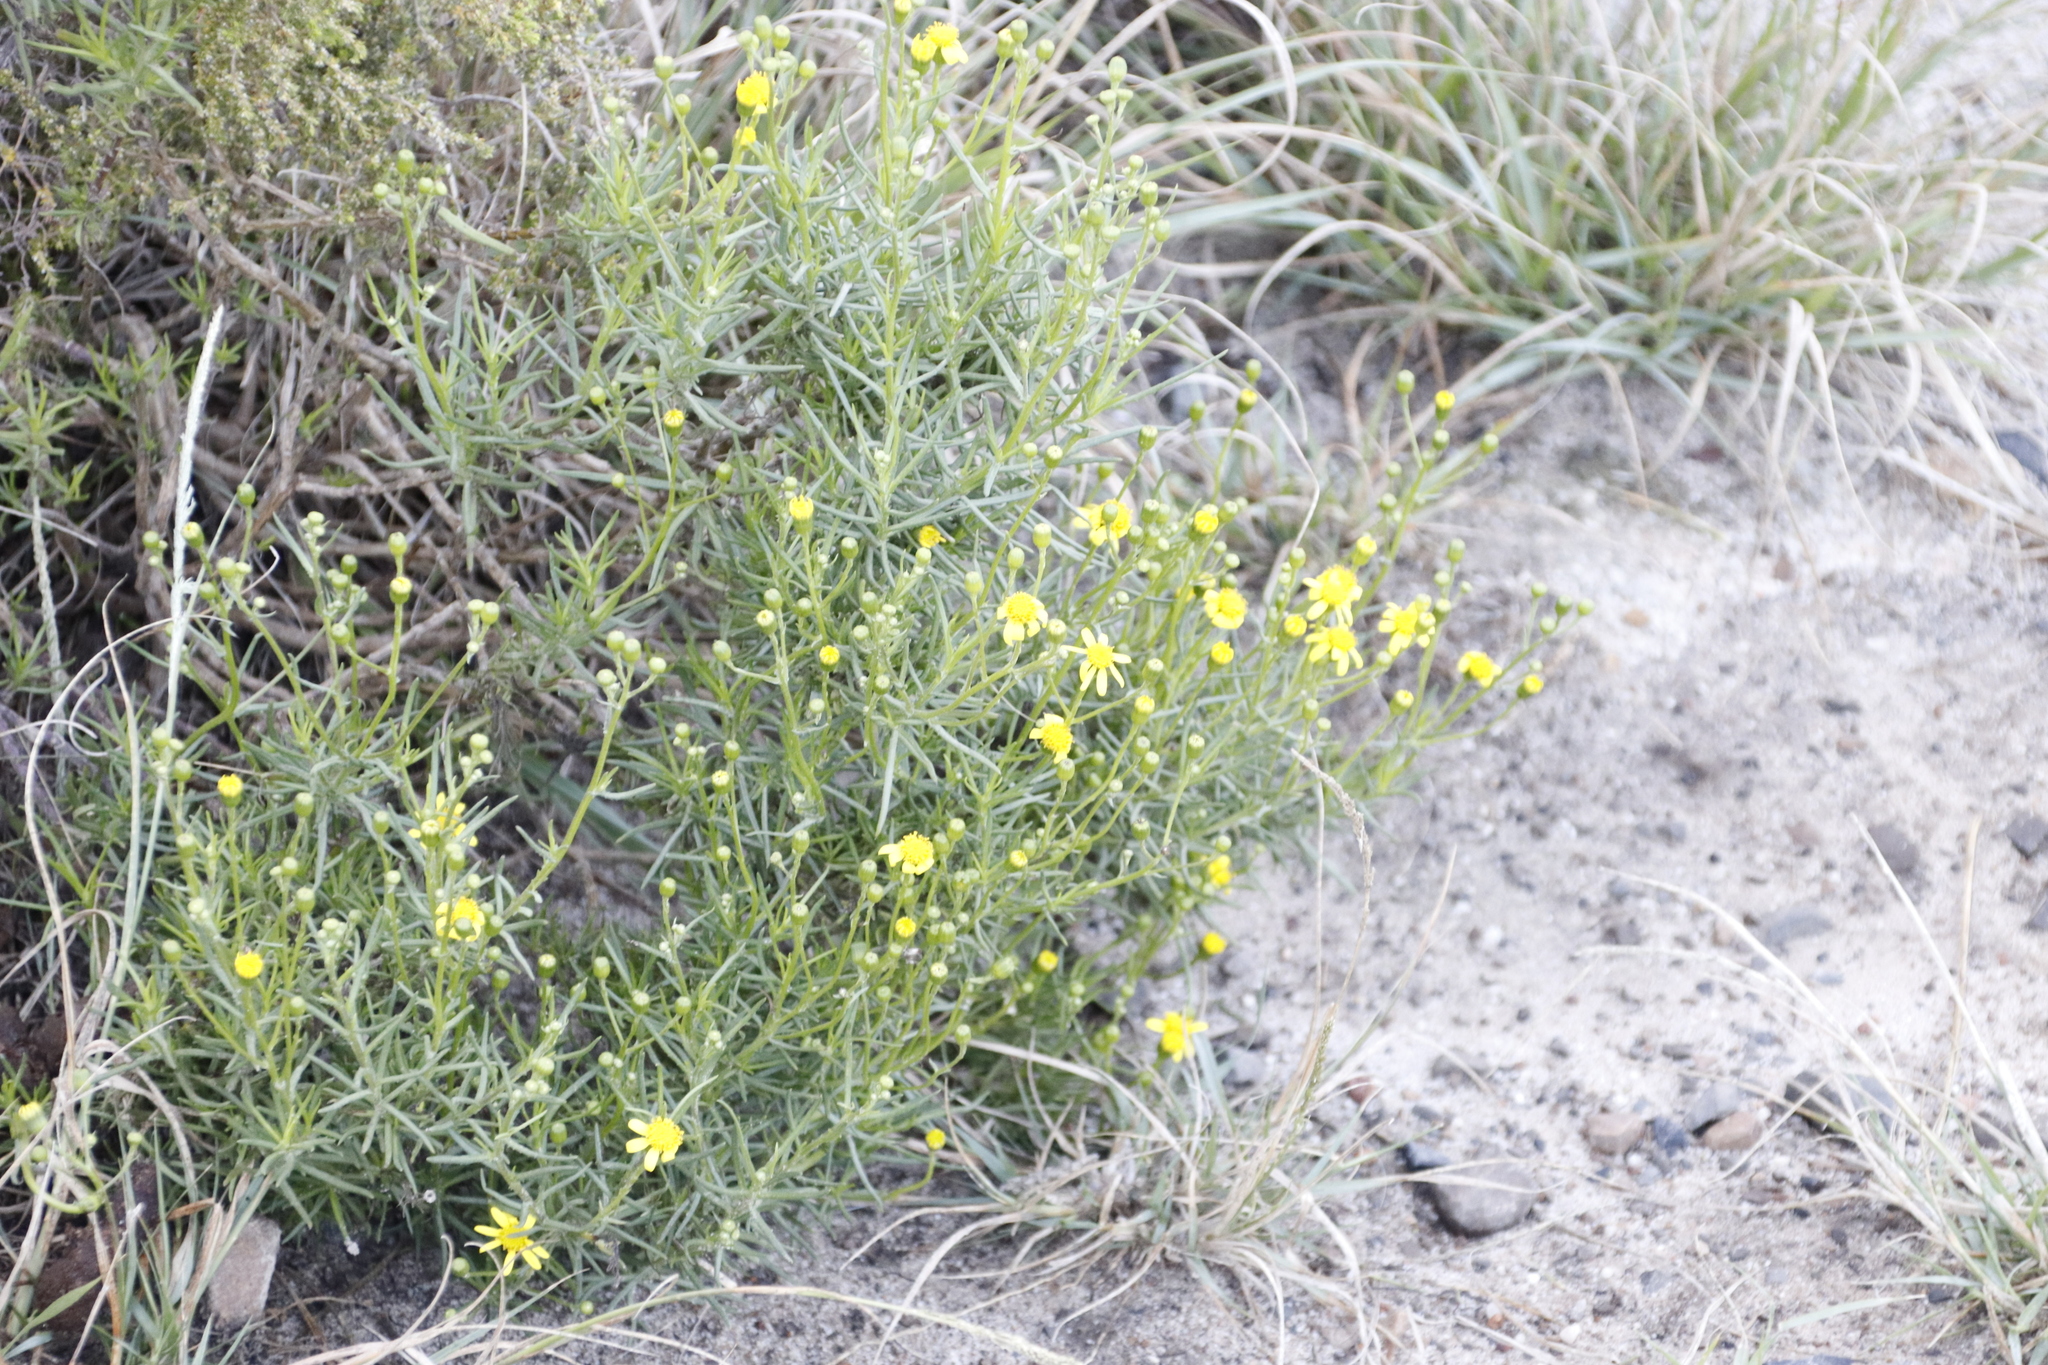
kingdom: Plantae
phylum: Tracheophyta
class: Magnoliopsida
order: Asterales
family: Asteraceae
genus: Senecio
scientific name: Senecio burchellii
